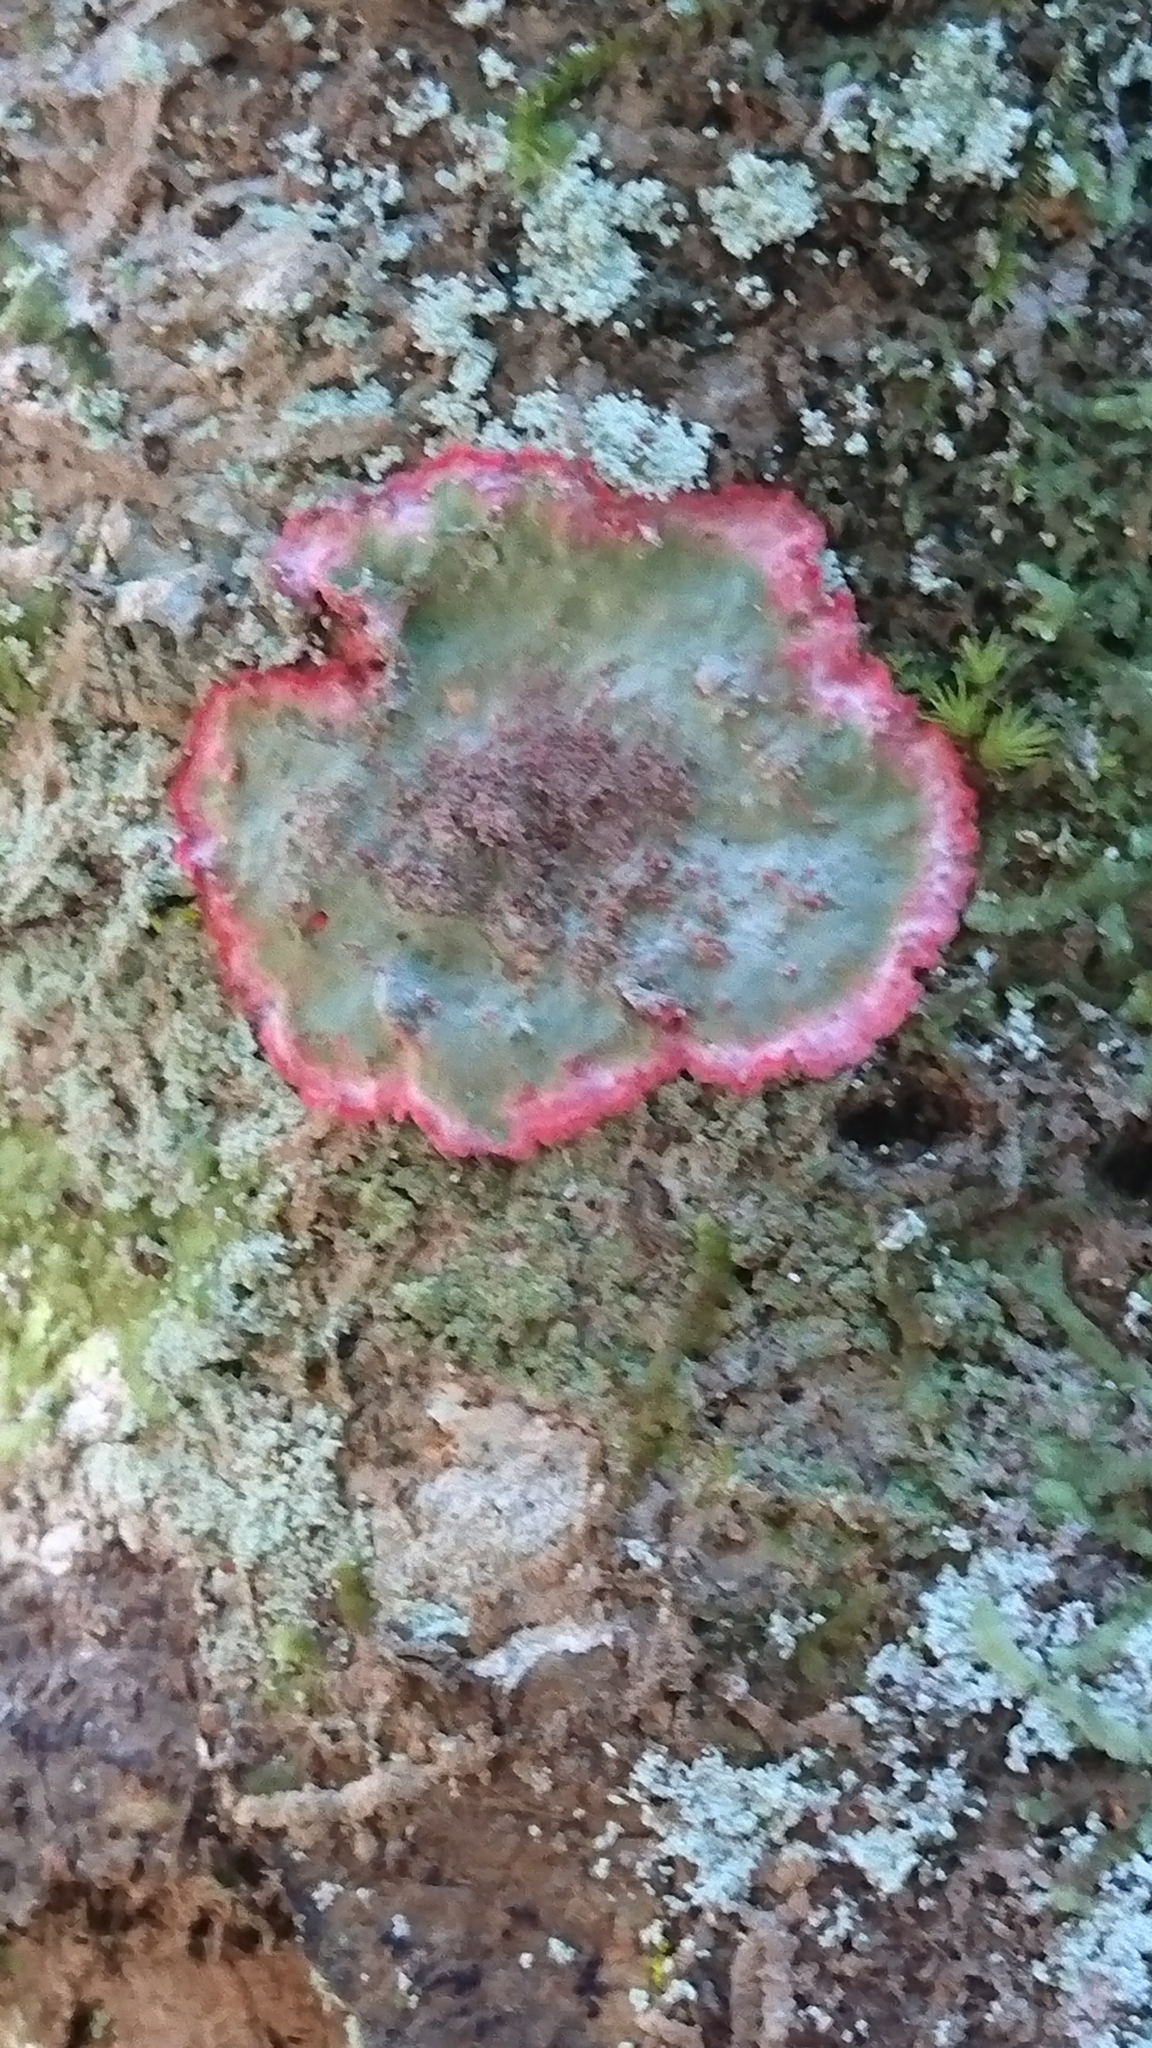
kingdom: Fungi
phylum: Ascomycota
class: Arthoniomycetes
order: Arthoniales
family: Arthoniaceae
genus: Herpothallon
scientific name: Herpothallon rubrocinctum
